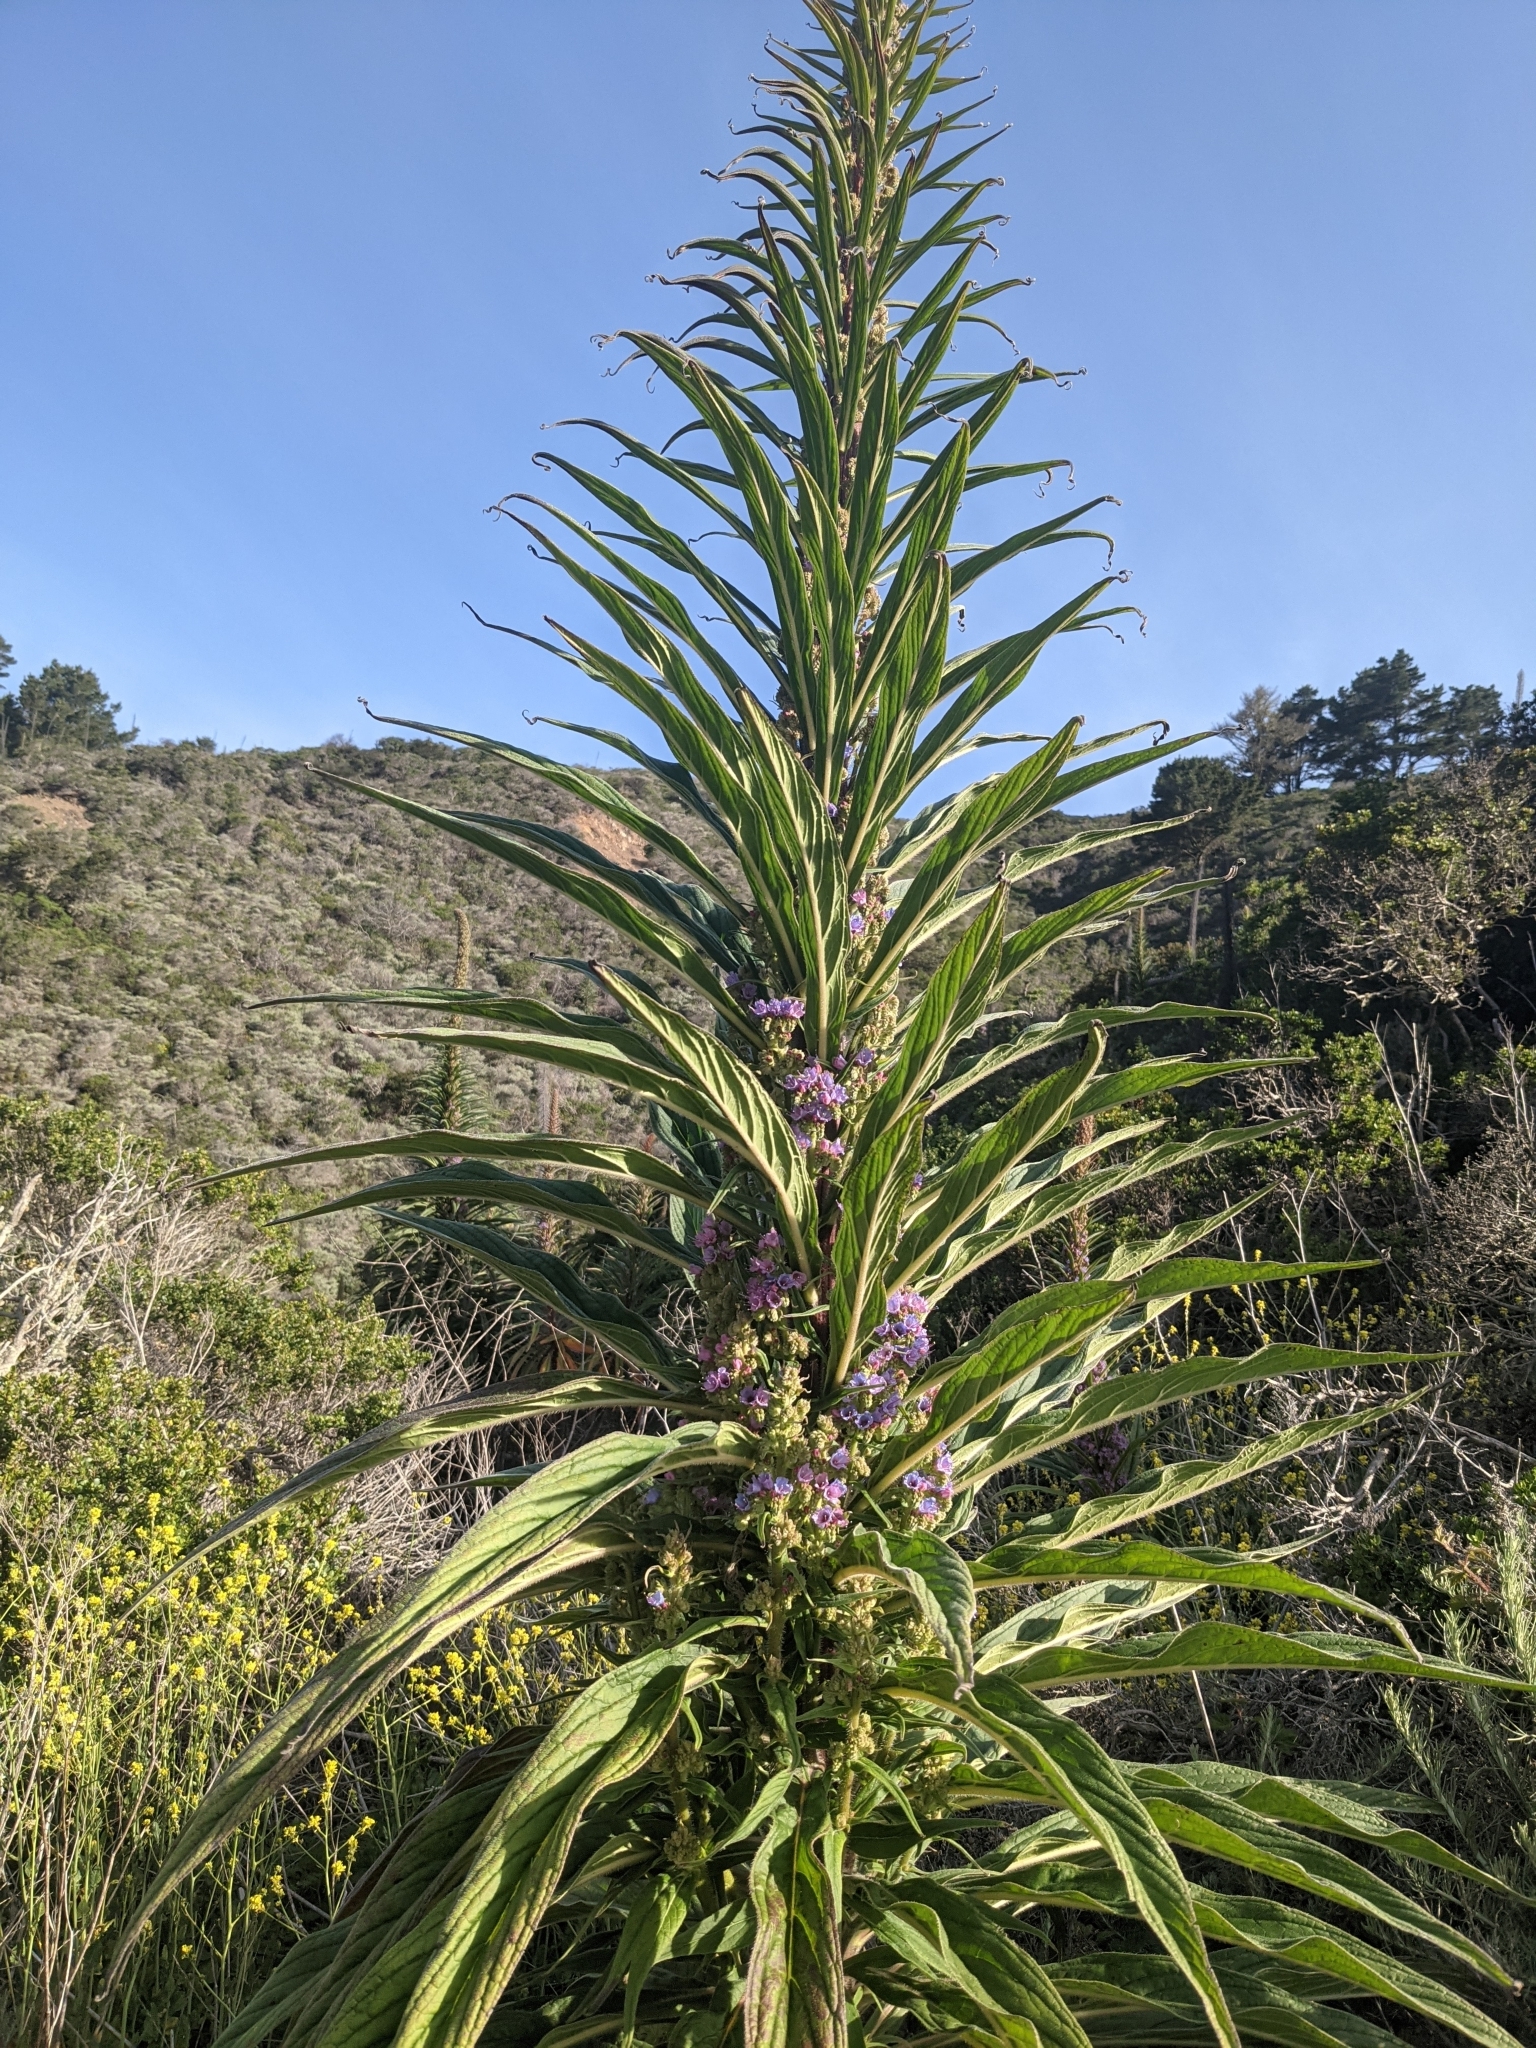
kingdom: Plantae
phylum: Tracheophyta
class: Magnoliopsida
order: Boraginales
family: Boraginaceae
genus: Echium
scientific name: Echium pininana
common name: Giant viper's-bugloss
